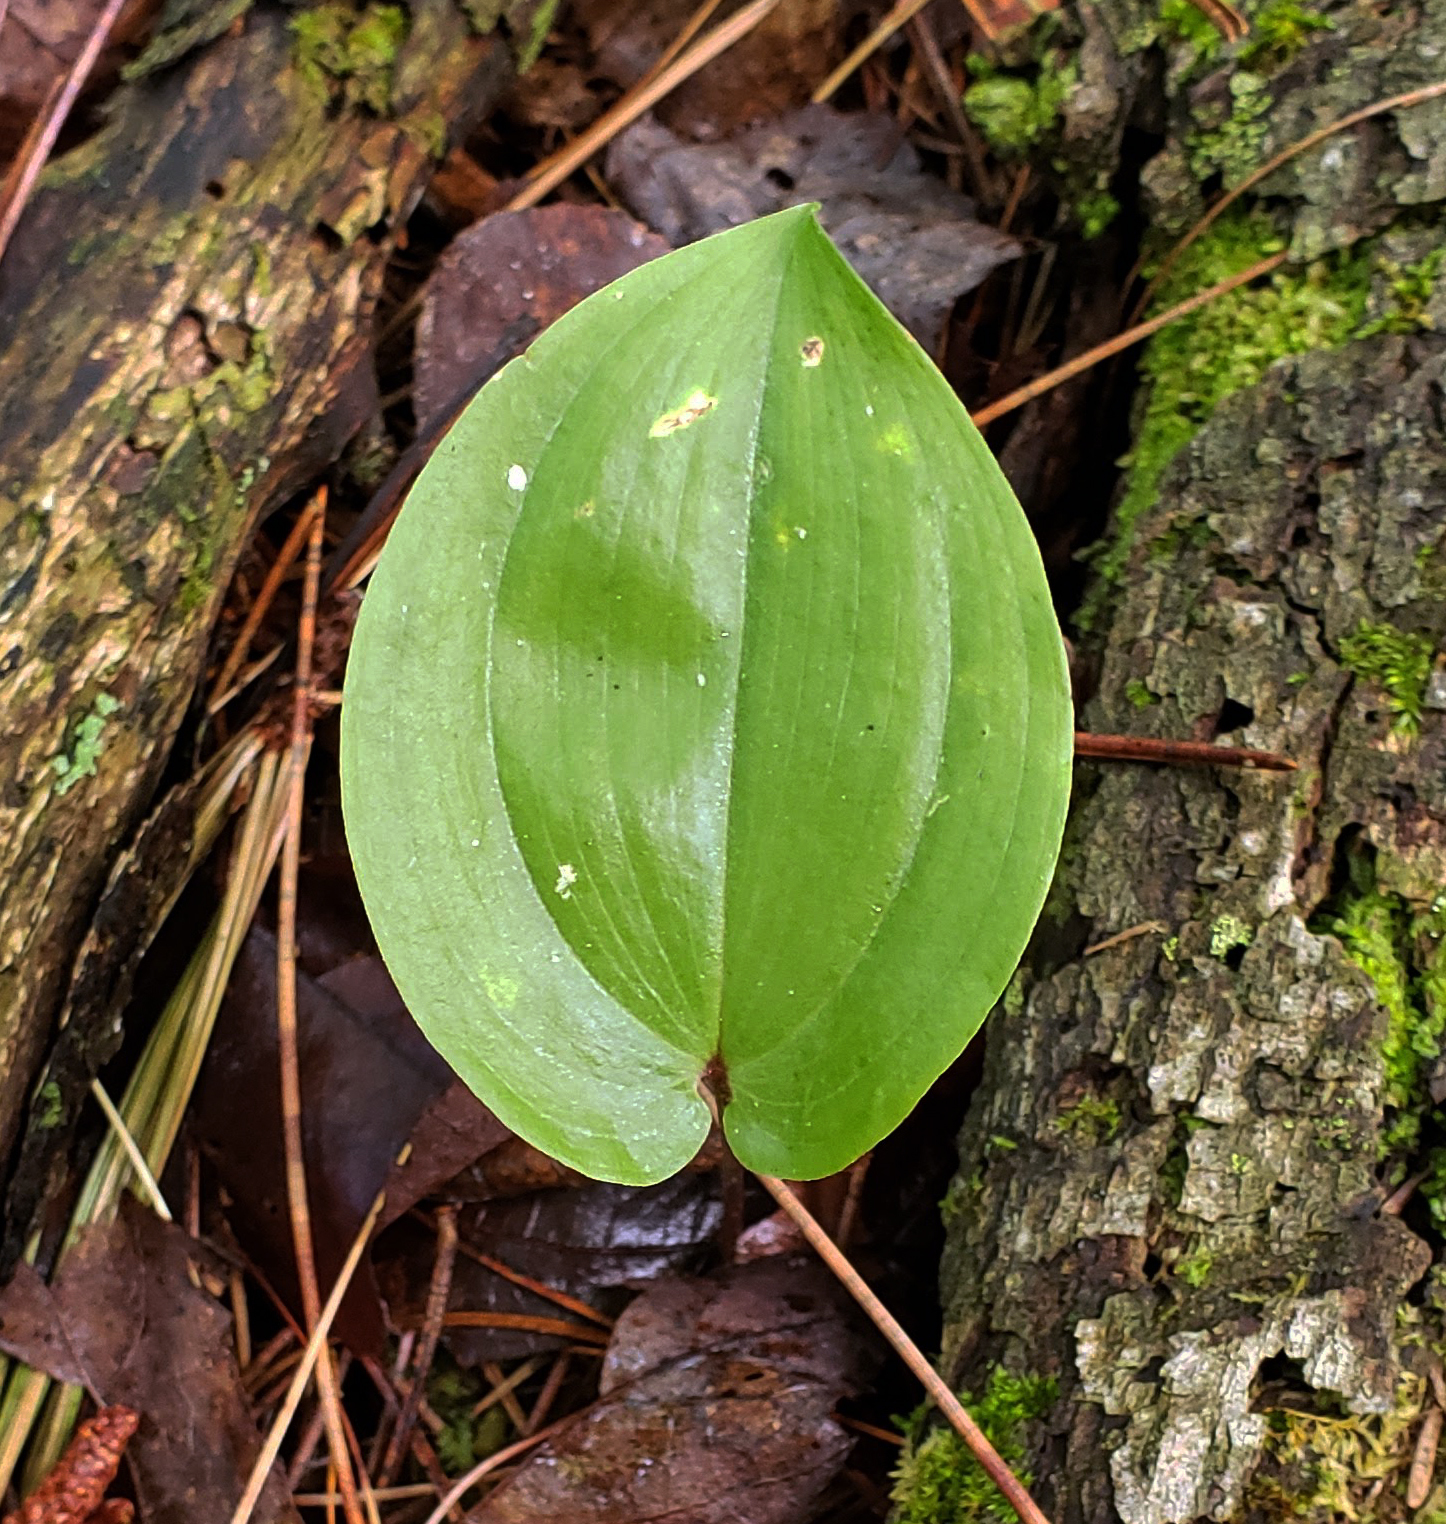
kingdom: Plantae
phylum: Tracheophyta
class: Liliopsida
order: Asparagales
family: Asparagaceae
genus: Maianthemum
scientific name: Maianthemum canadense
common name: False lily-of-the-valley
